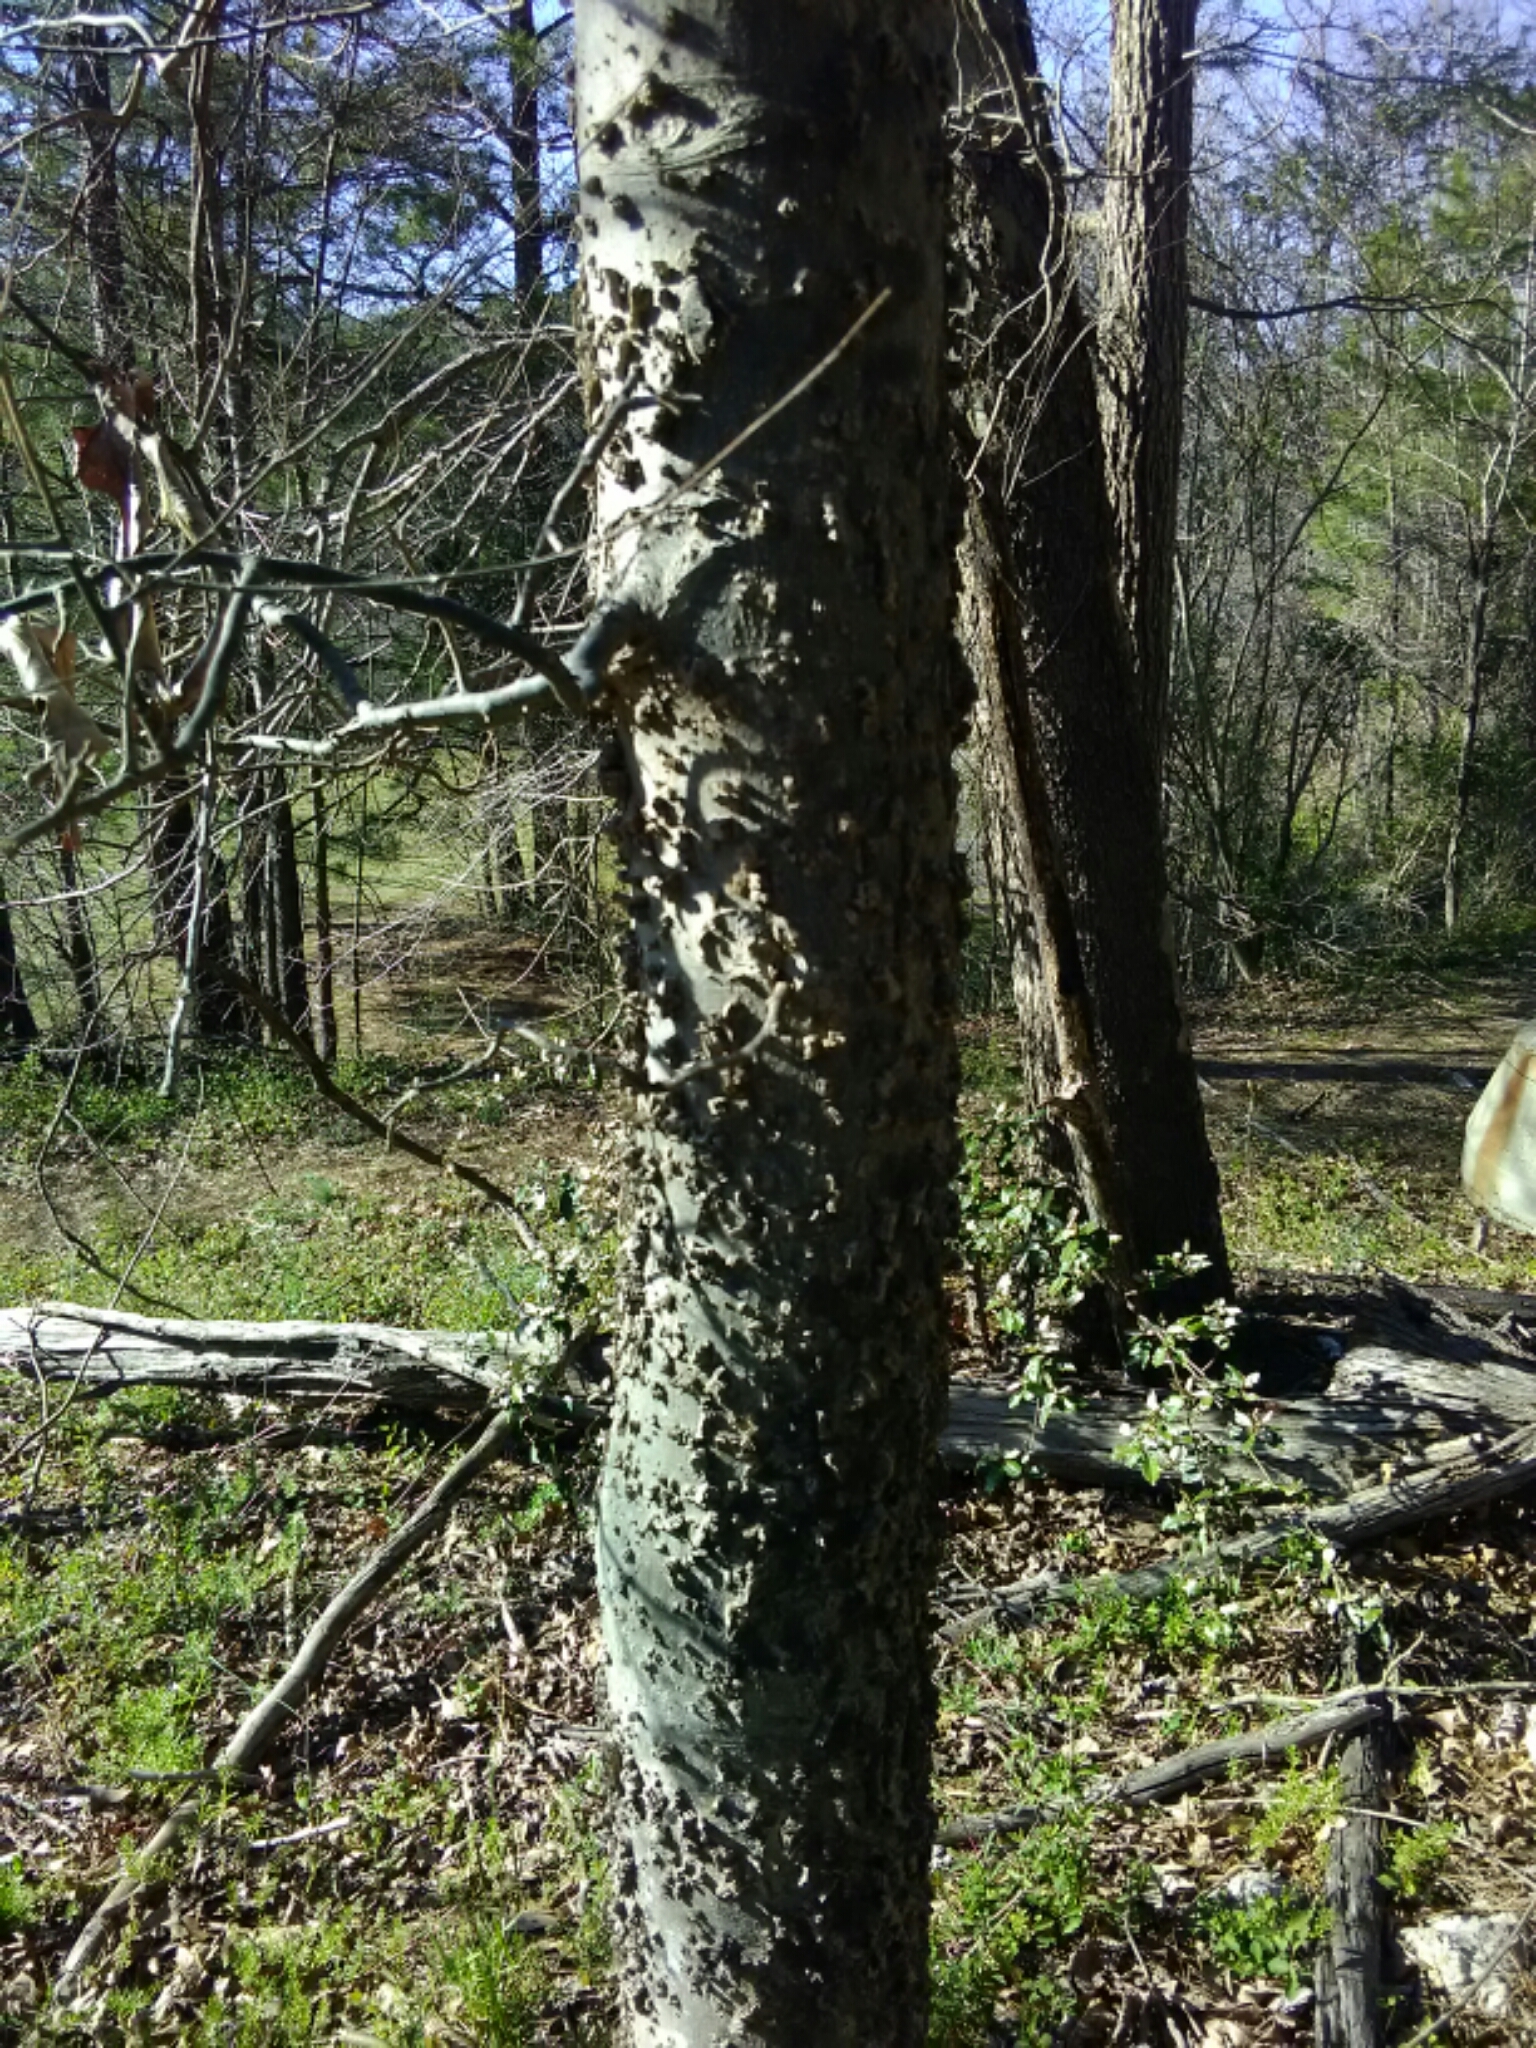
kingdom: Plantae
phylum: Tracheophyta
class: Magnoliopsida
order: Rosales
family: Cannabaceae
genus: Celtis
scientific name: Celtis laevigata
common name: Sugarberry
